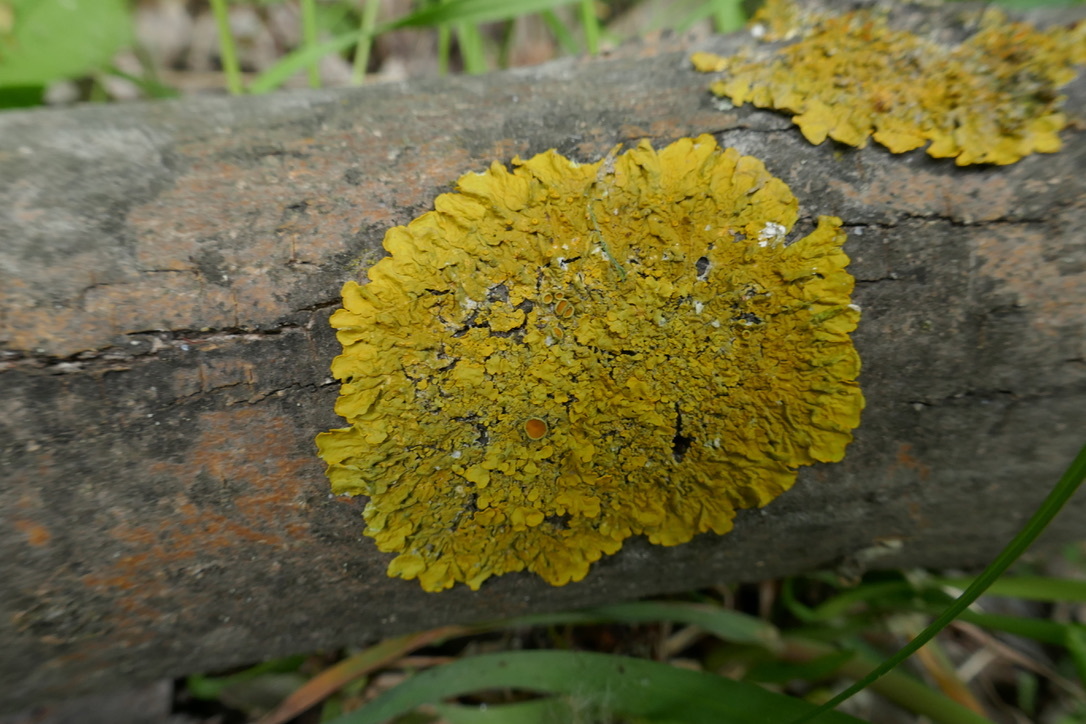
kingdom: Fungi
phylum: Ascomycota
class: Lecanoromycetes
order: Teloschistales
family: Teloschistaceae
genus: Xanthoria
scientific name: Xanthoria parietina
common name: Common orange lichen
